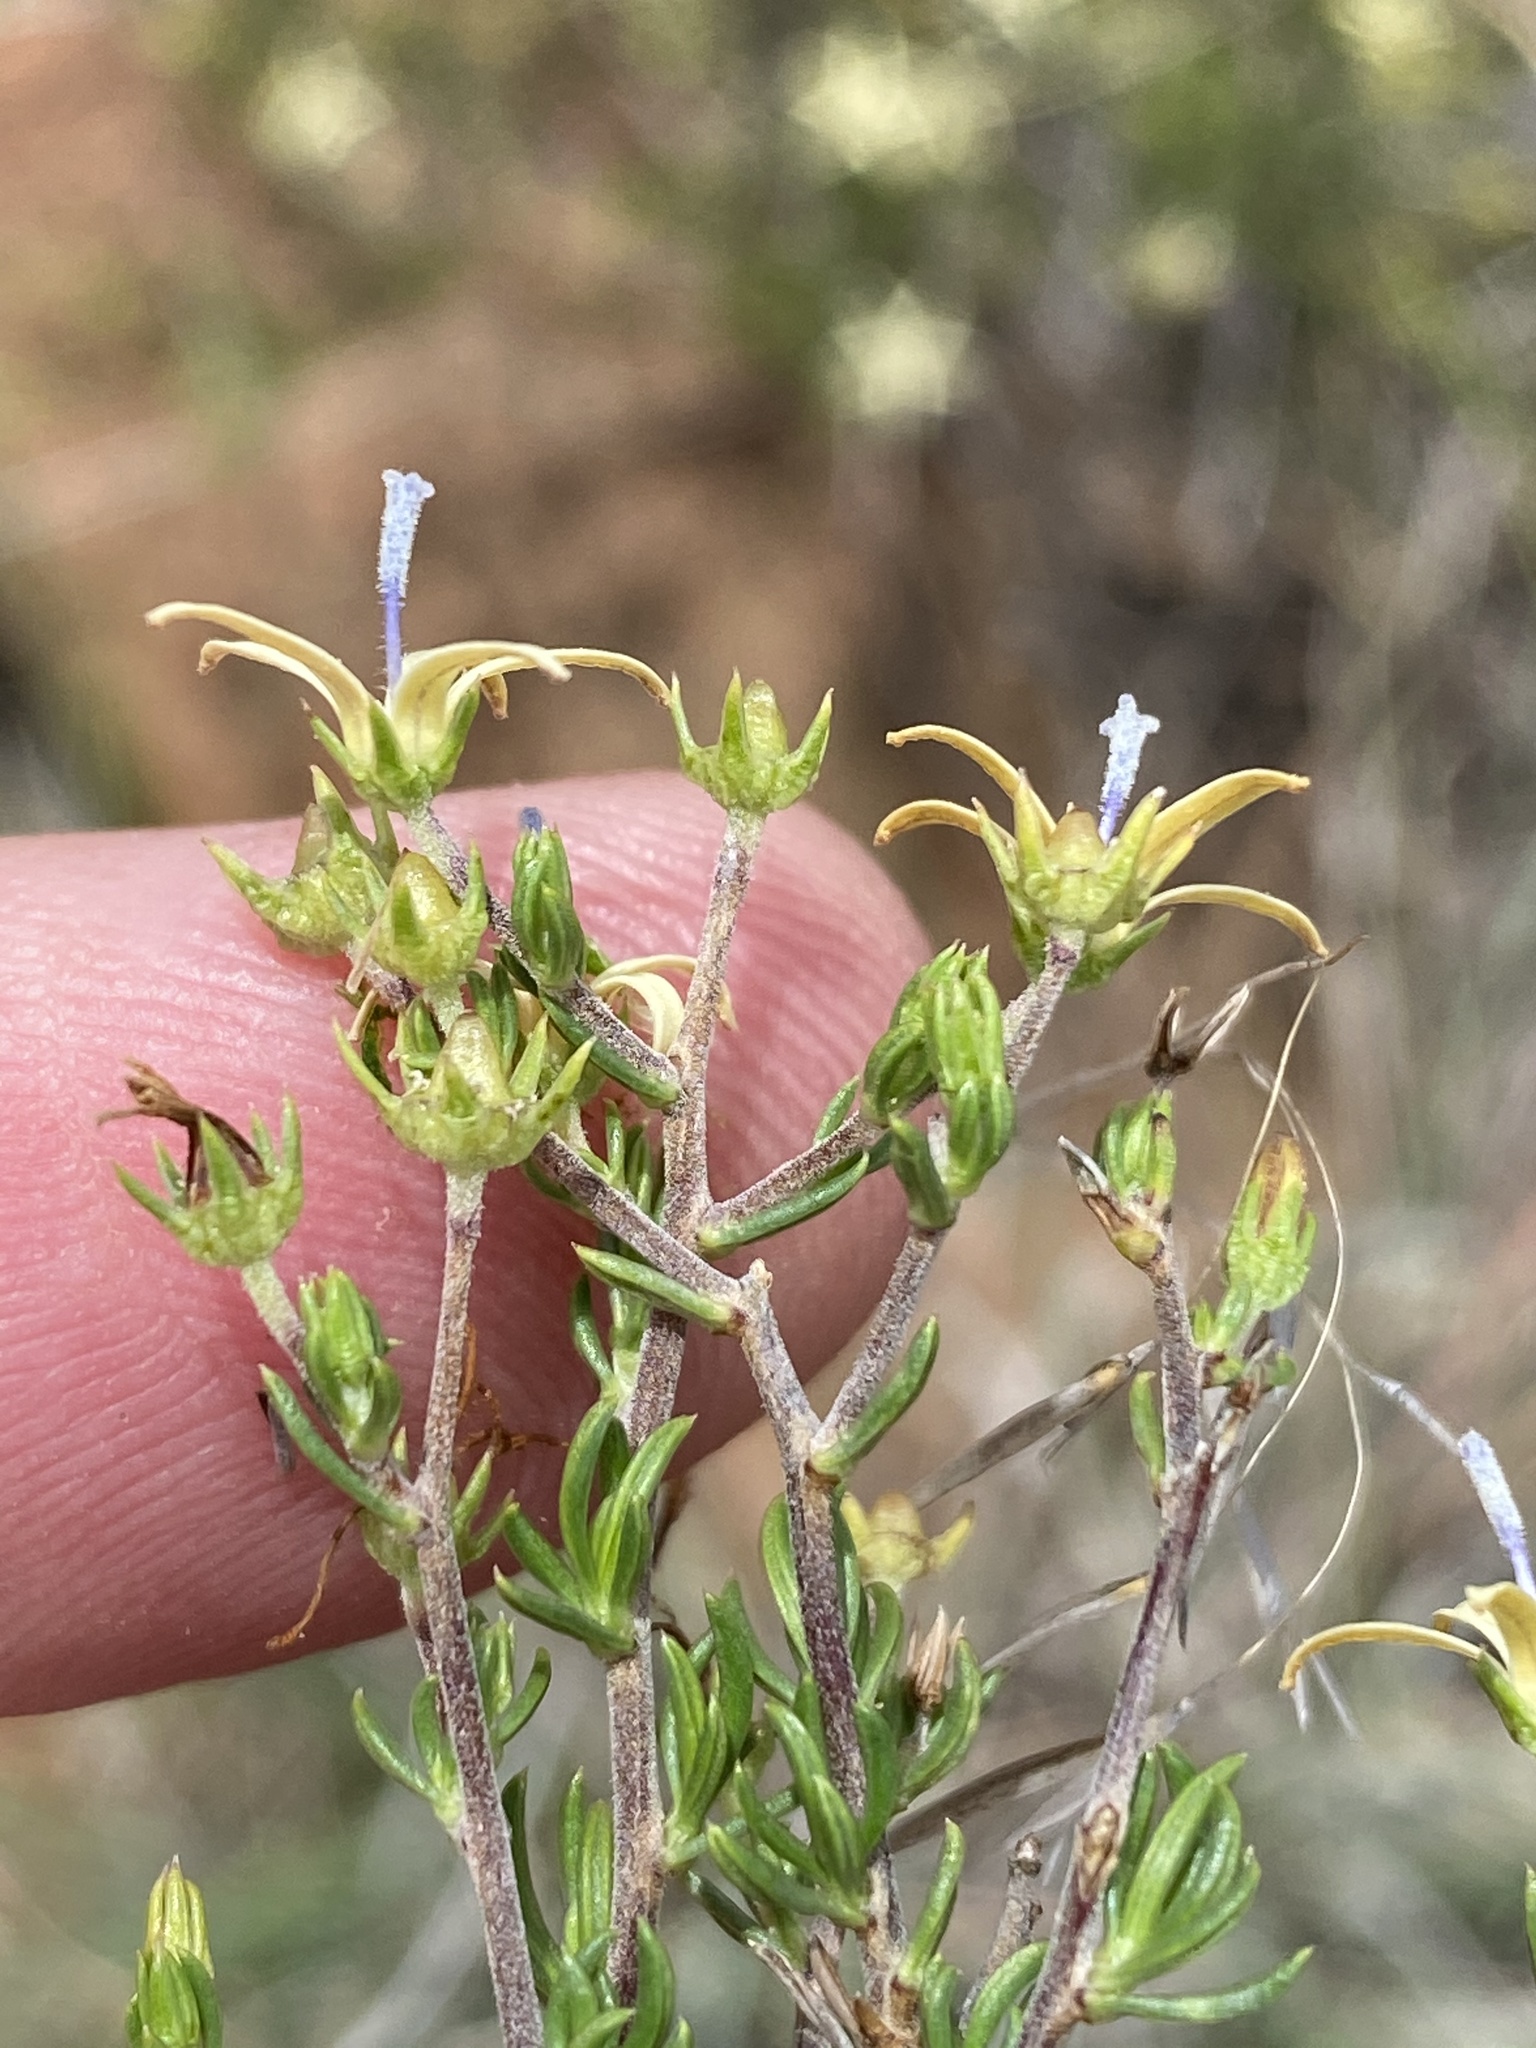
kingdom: Plantae
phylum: Tracheophyta
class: Magnoliopsida
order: Asterales
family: Campanulaceae
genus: Wahlenbergia
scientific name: Wahlenbergia albens
